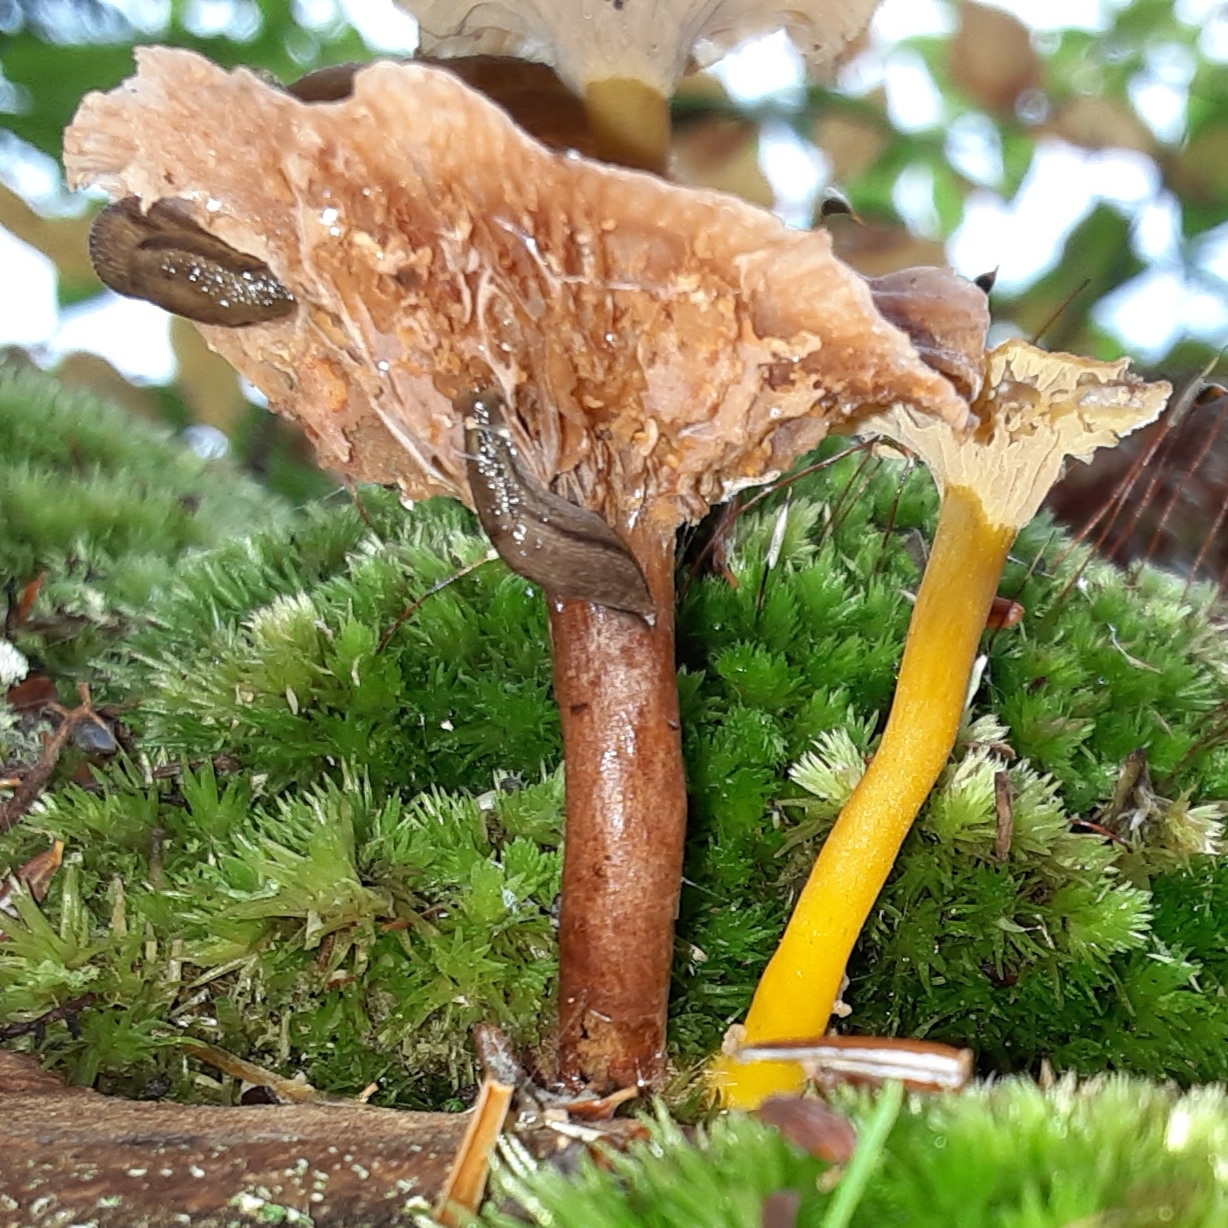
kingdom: Fungi
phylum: Basidiomycota
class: Agaricomycetes
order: Cantharellales
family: Hydnaceae
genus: Craterellus
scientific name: Craterellus tubaeformis
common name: Yellowfoot
